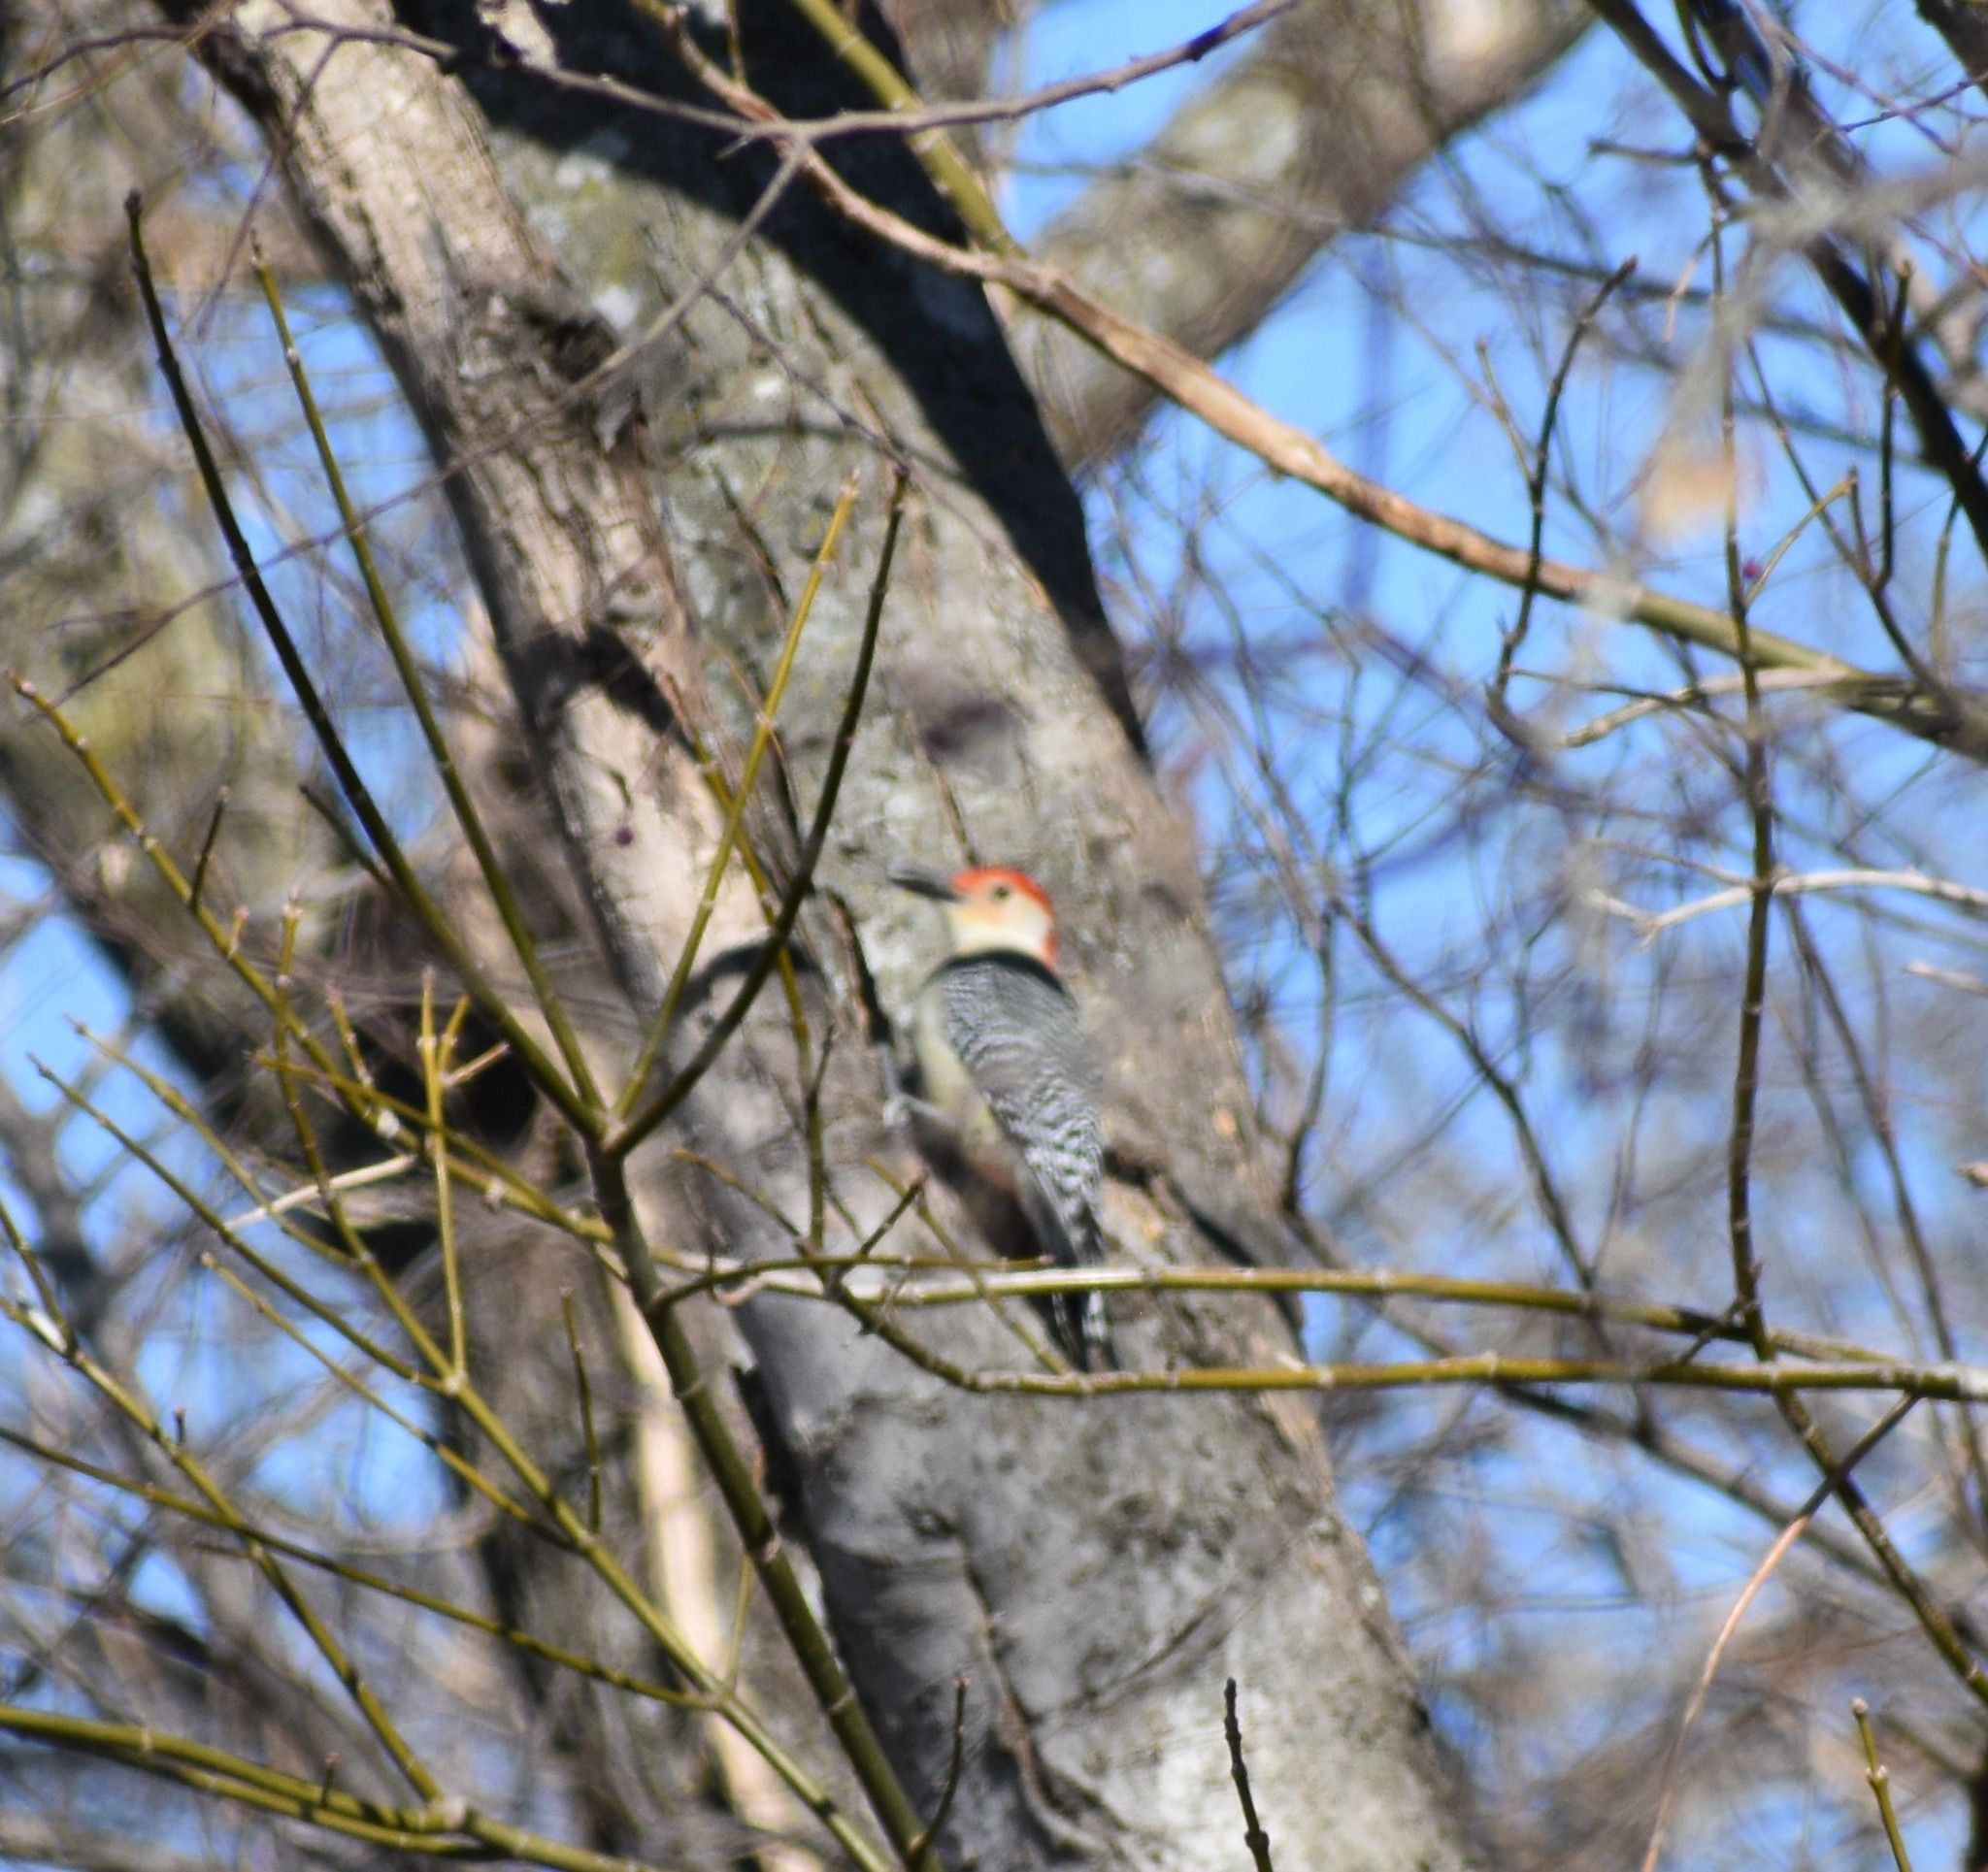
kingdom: Animalia
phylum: Chordata
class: Aves
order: Piciformes
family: Picidae
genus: Melanerpes
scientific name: Melanerpes carolinus
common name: Red-bellied woodpecker
